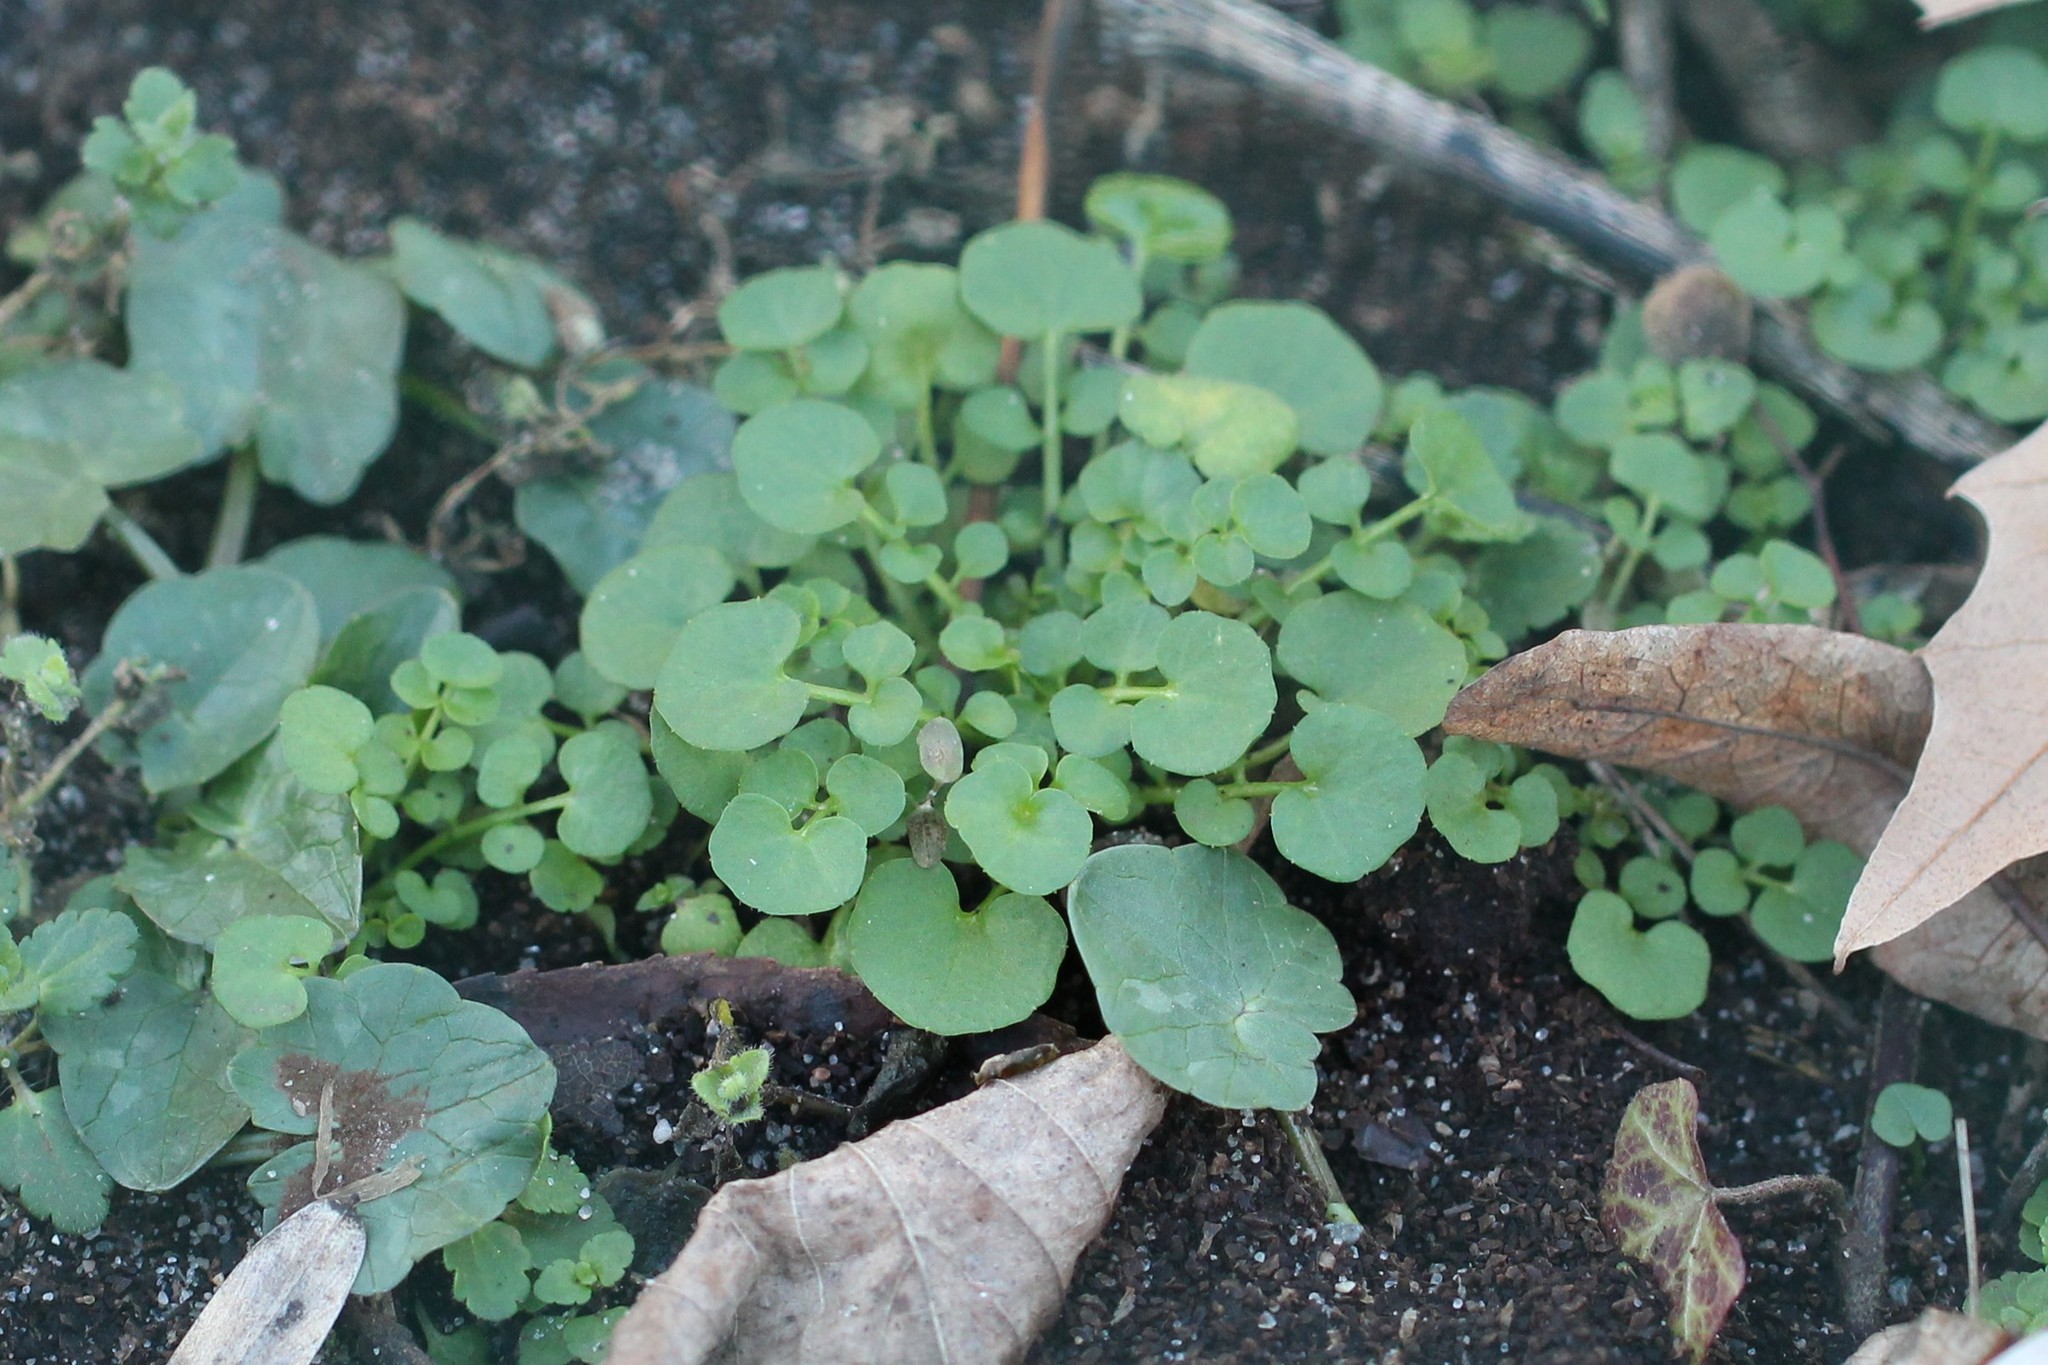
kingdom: Plantae
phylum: Tracheophyta
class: Magnoliopsida
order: Brassicales
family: Brassicaceae
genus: Cardamine
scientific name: Cardamine hirsuta
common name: Hairy bittercress
